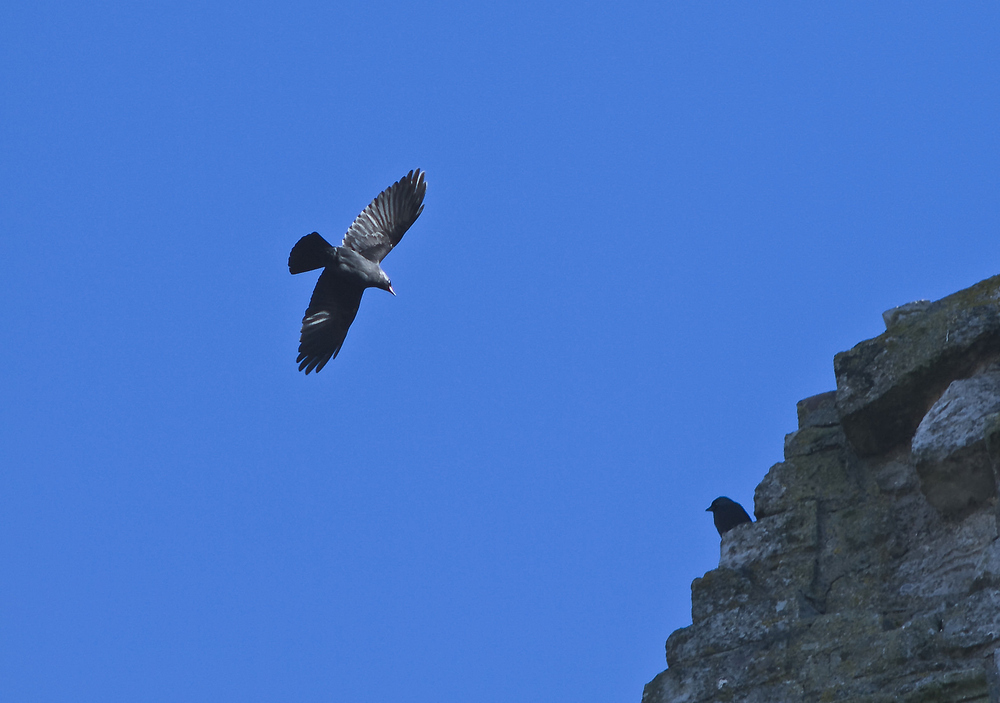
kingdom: Animalia
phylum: Chordata
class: Aves
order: Passeriformes
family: Corvidae
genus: Coloeus
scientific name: Coloeus monedula
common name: Western jackdaw
